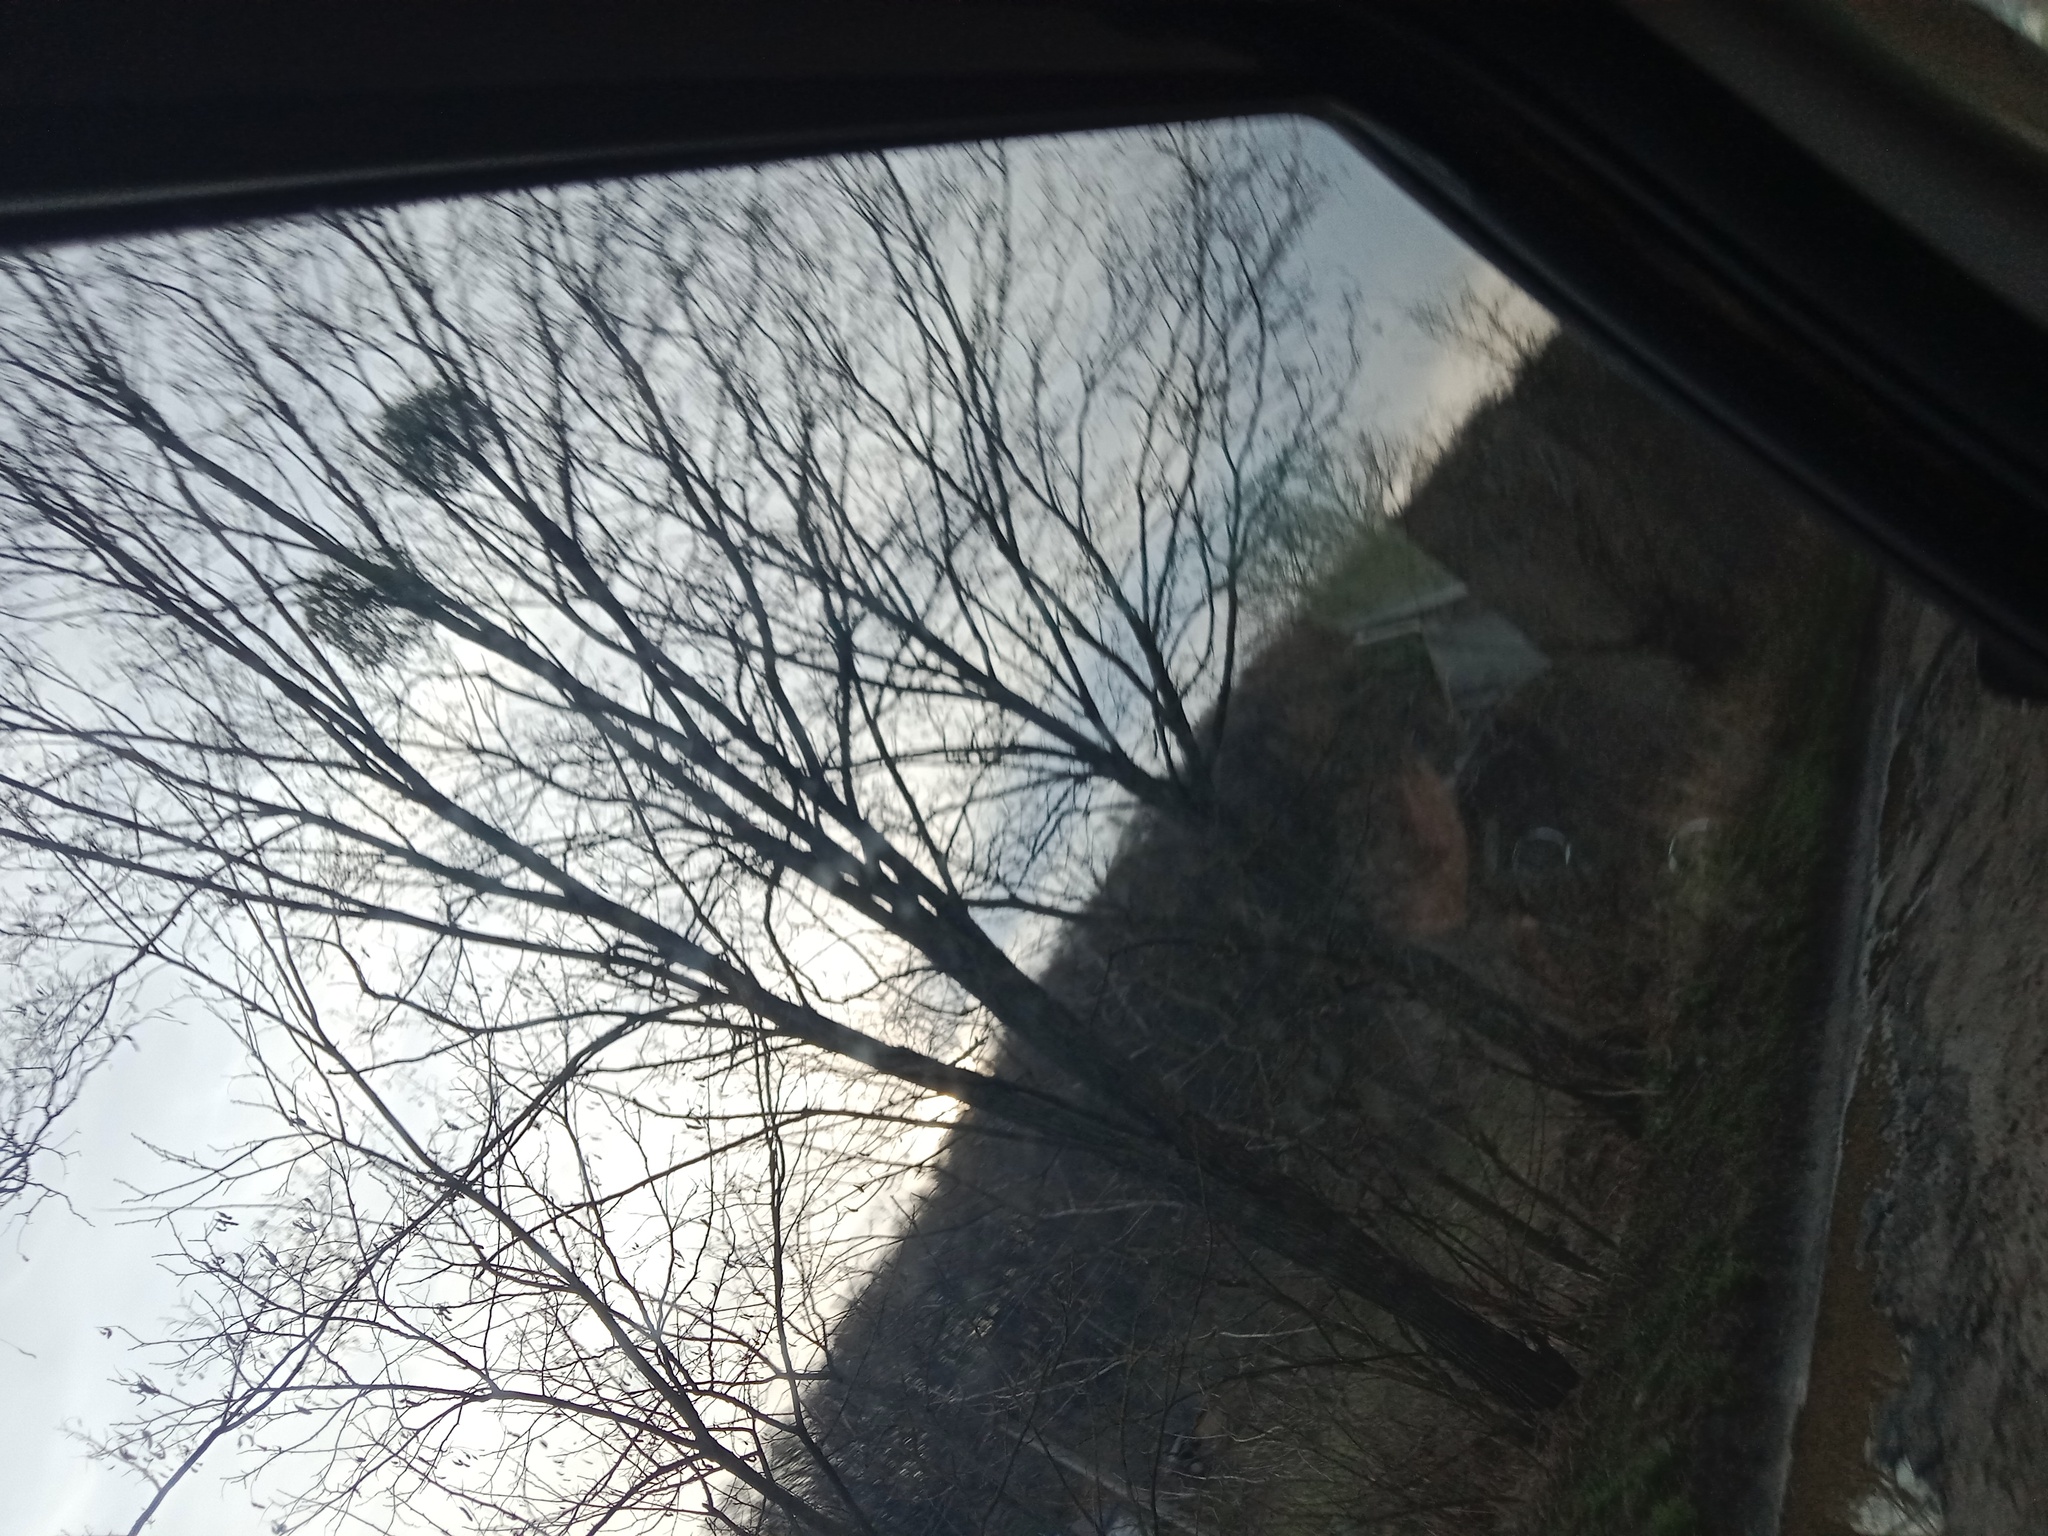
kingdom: Plantae
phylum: Tracheophyta
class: Magnoliopsida
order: Santalales
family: Viscaceae
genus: Viscum
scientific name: Viscum album
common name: Mistletoe
